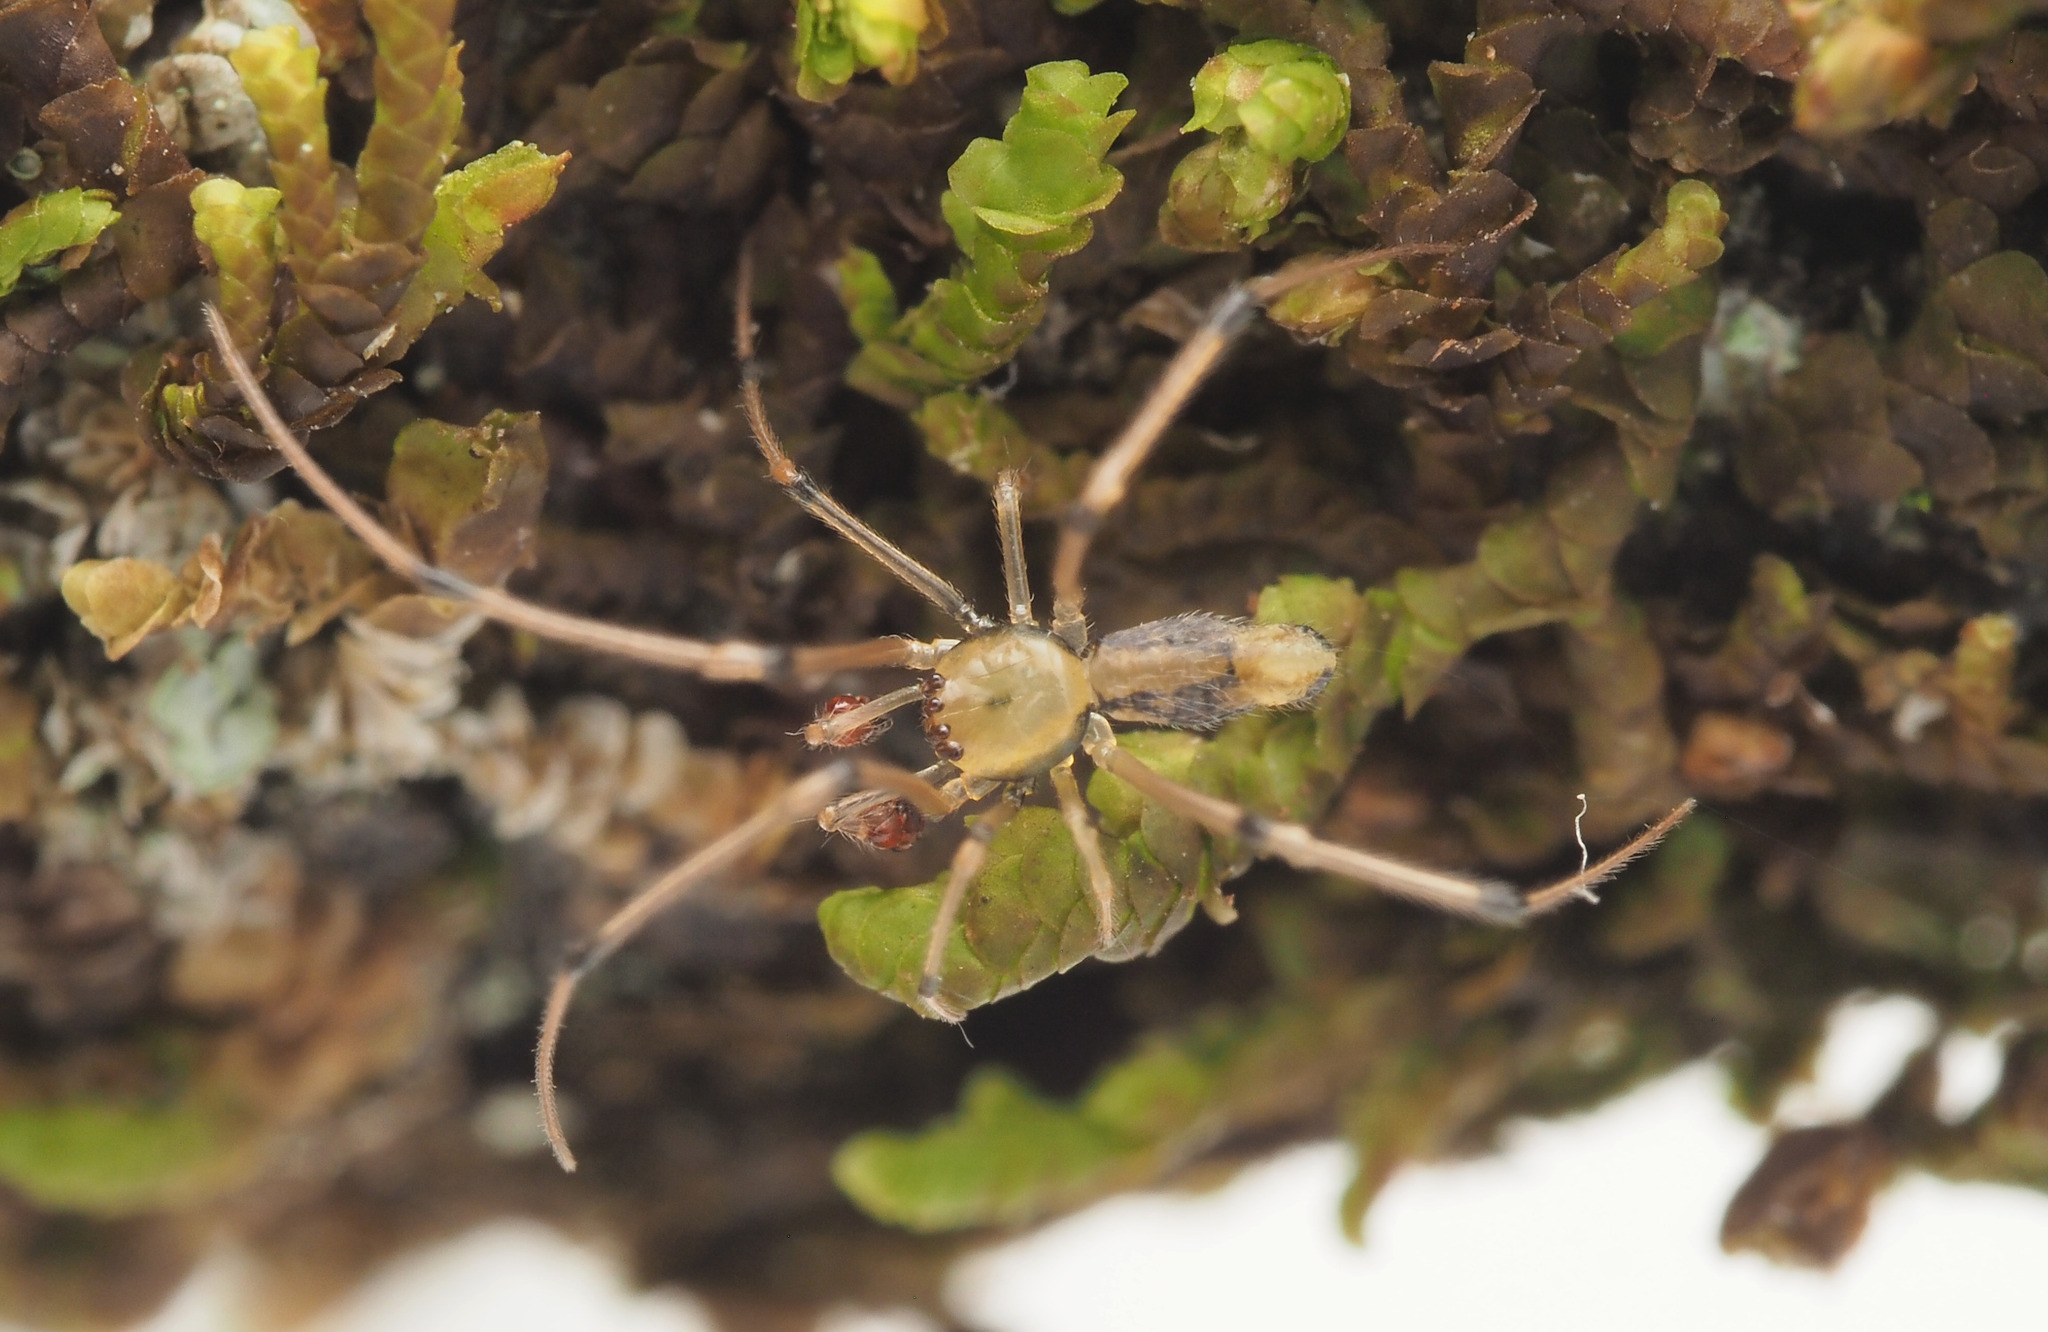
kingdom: Animalia
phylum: Arthropoda
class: Arachnida
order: Araneae
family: Theridiidae
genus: Moneta
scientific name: Moneta
